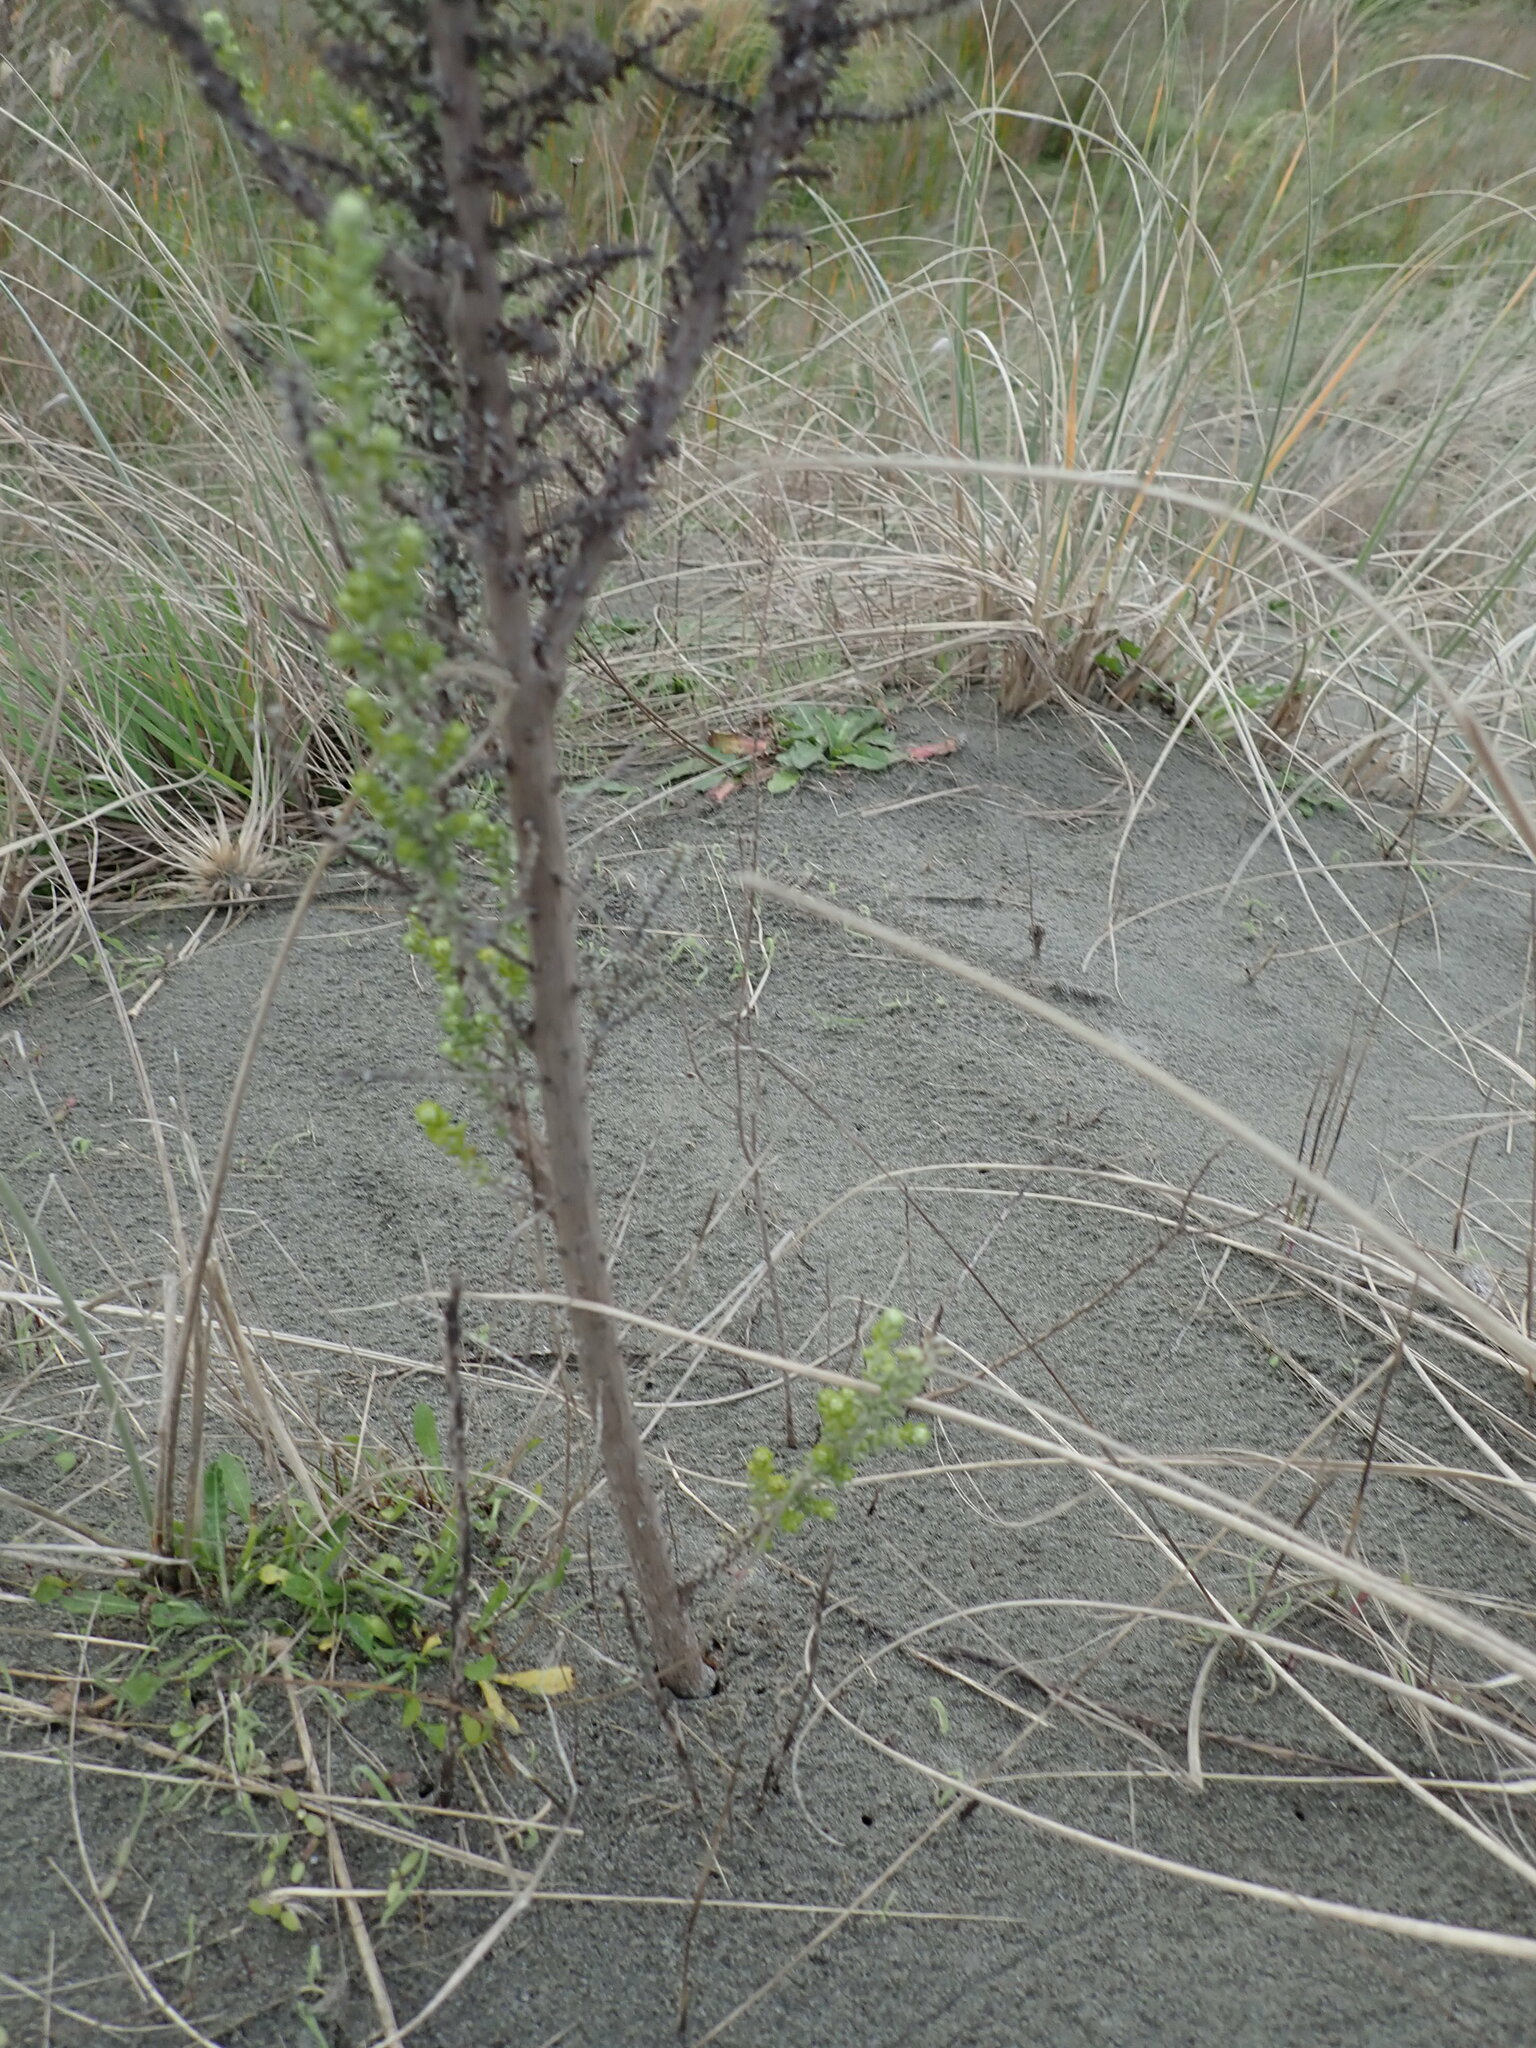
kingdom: Plantae
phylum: Tracheophyta
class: Magnoliopsida
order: Asterales
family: Asteraceae
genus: Ozothamnus
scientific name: Ozothamnus leptophyllus
